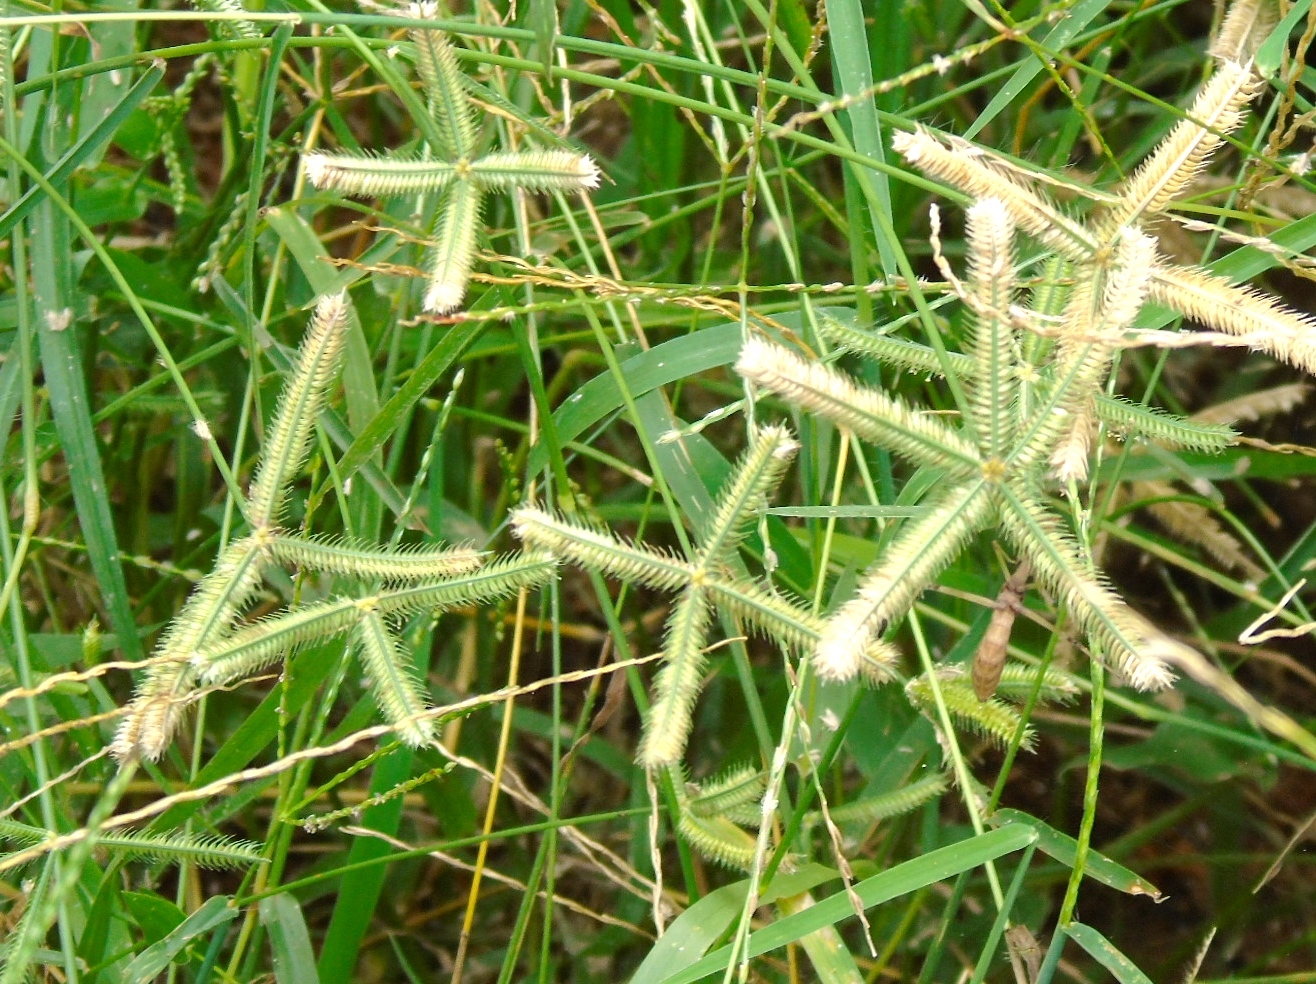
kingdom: Plantae
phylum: Tracheophyta
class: Liliopsida
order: Poales
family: Poaceae
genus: Dactyloctenium
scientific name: Dactyloctenium aegyptium
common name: Egyptian grass
